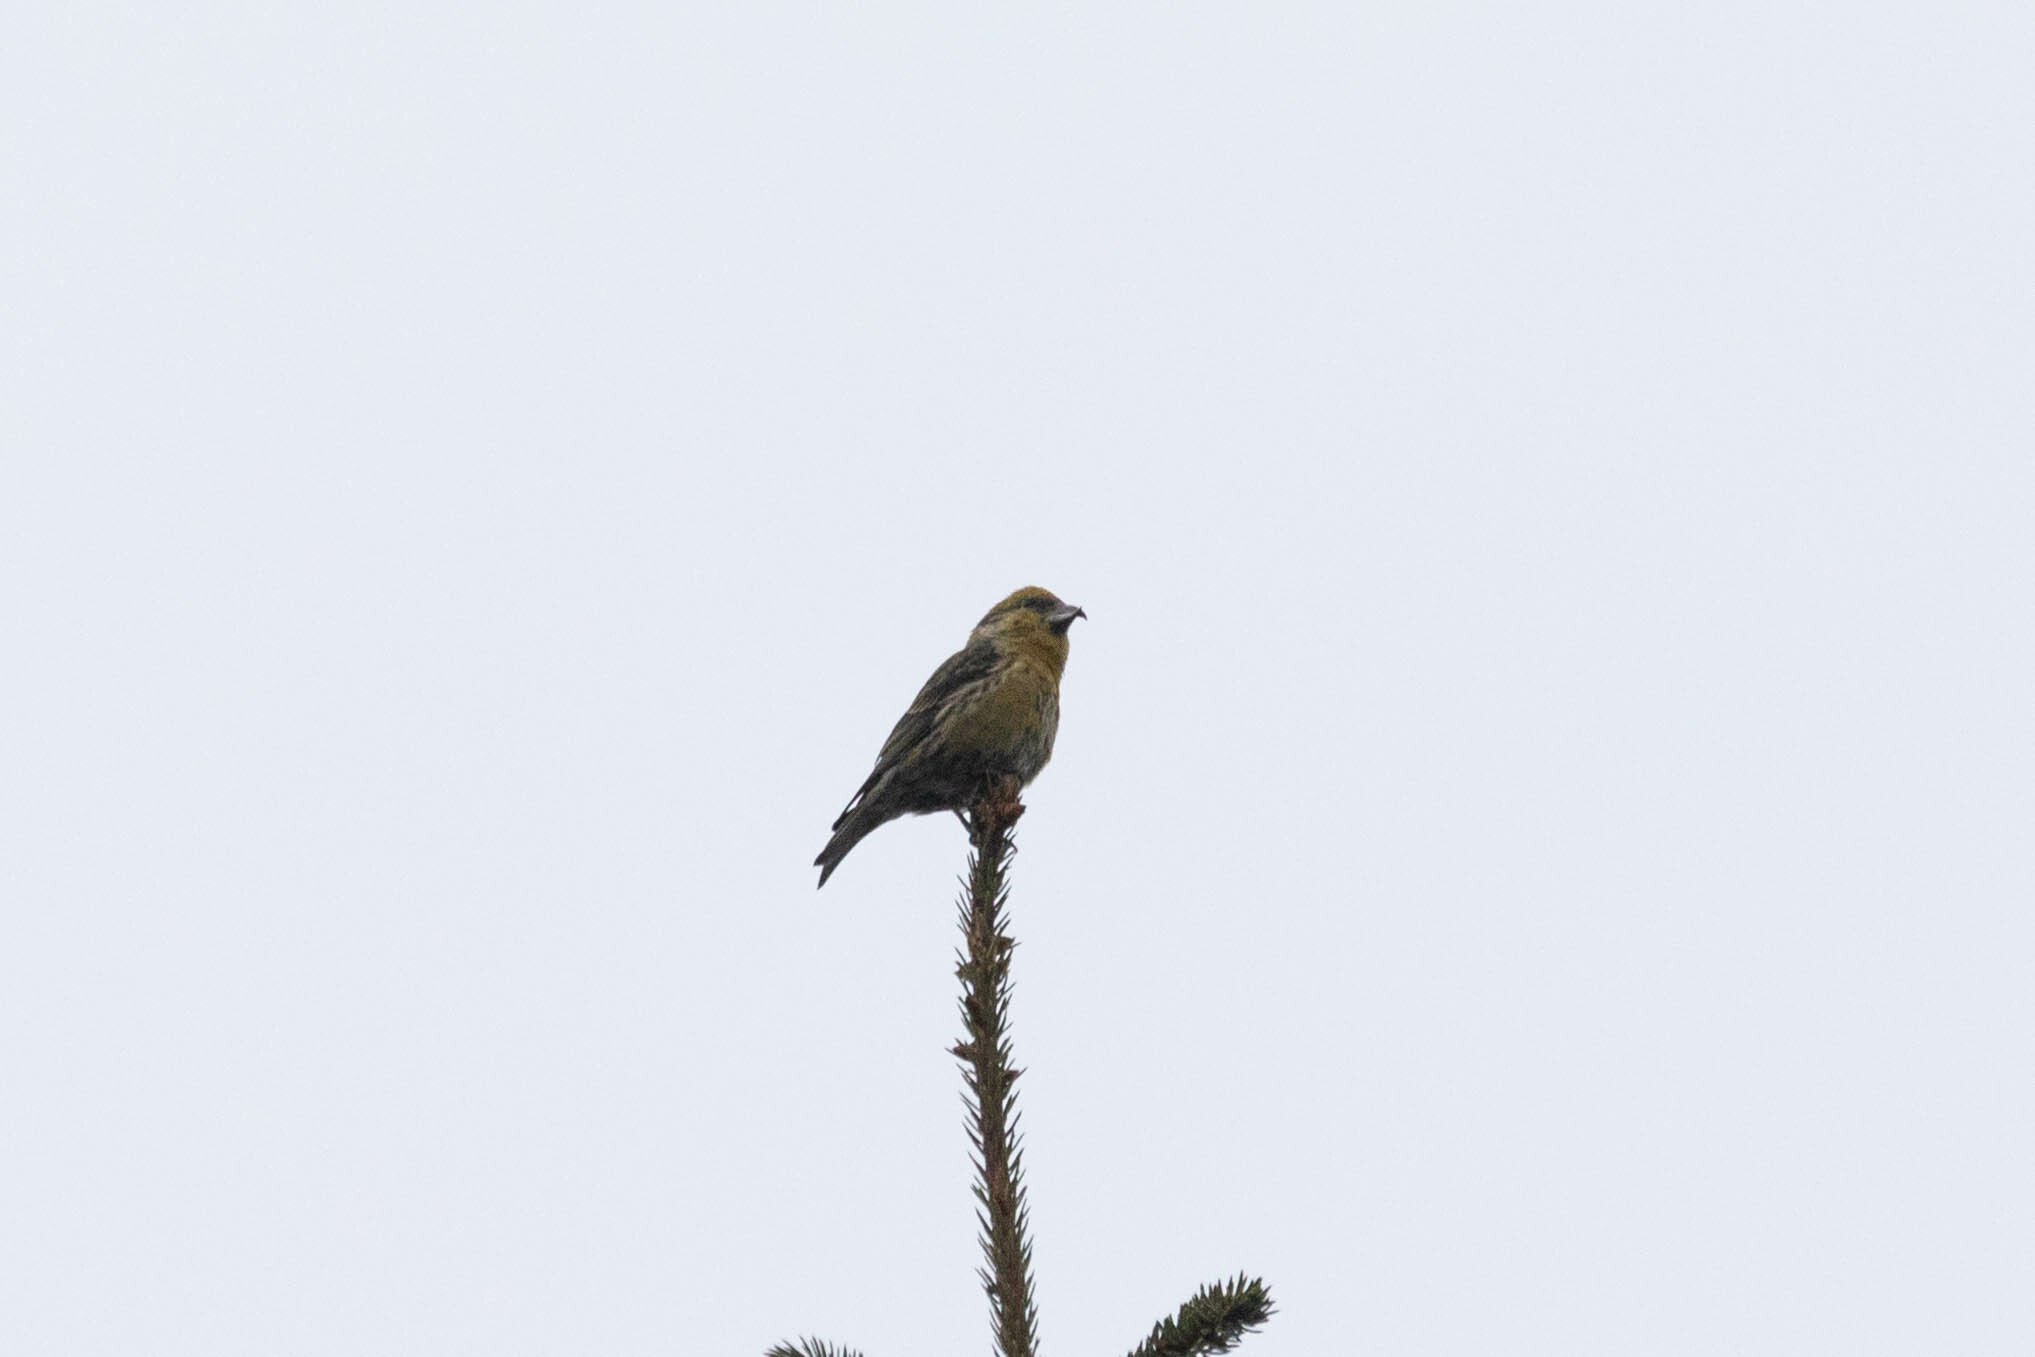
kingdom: Animalia
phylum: Chordata
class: Aves
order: Passeriformes
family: Fringillidae
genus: Loxia
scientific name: Loxia curvirostra
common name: Red crossbill
